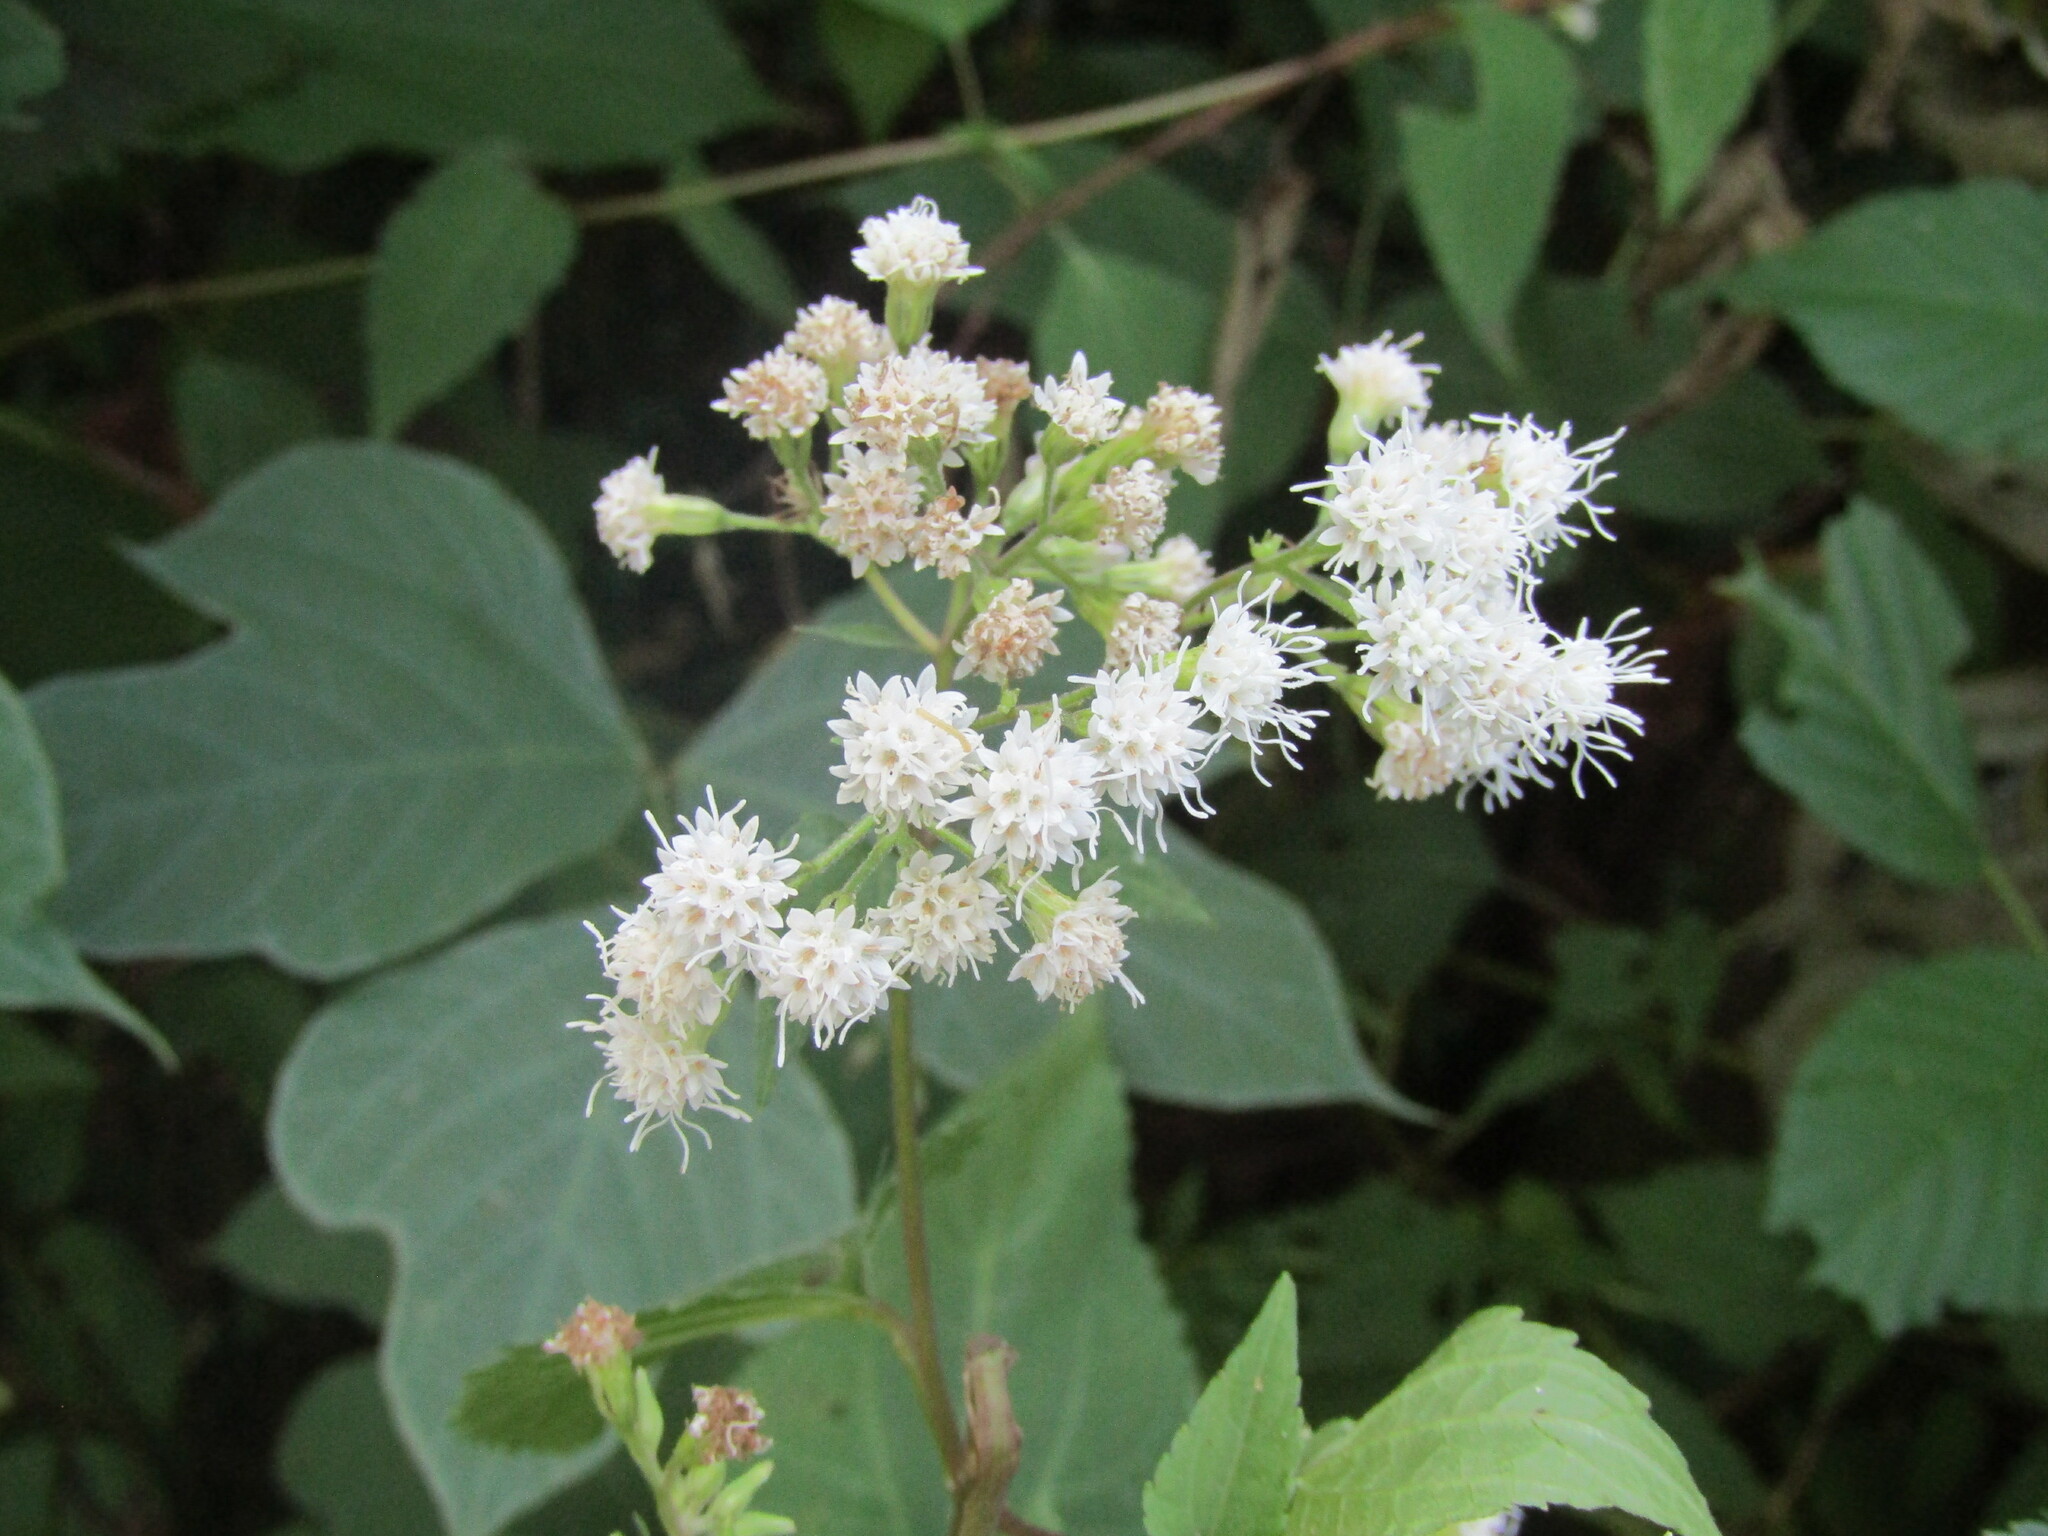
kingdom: Plantae
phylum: Tracheophyta
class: Magnoliopsida
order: Asterales
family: Asteraceae
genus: Ageratina
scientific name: Ageratina altissima
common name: White snakeroot
